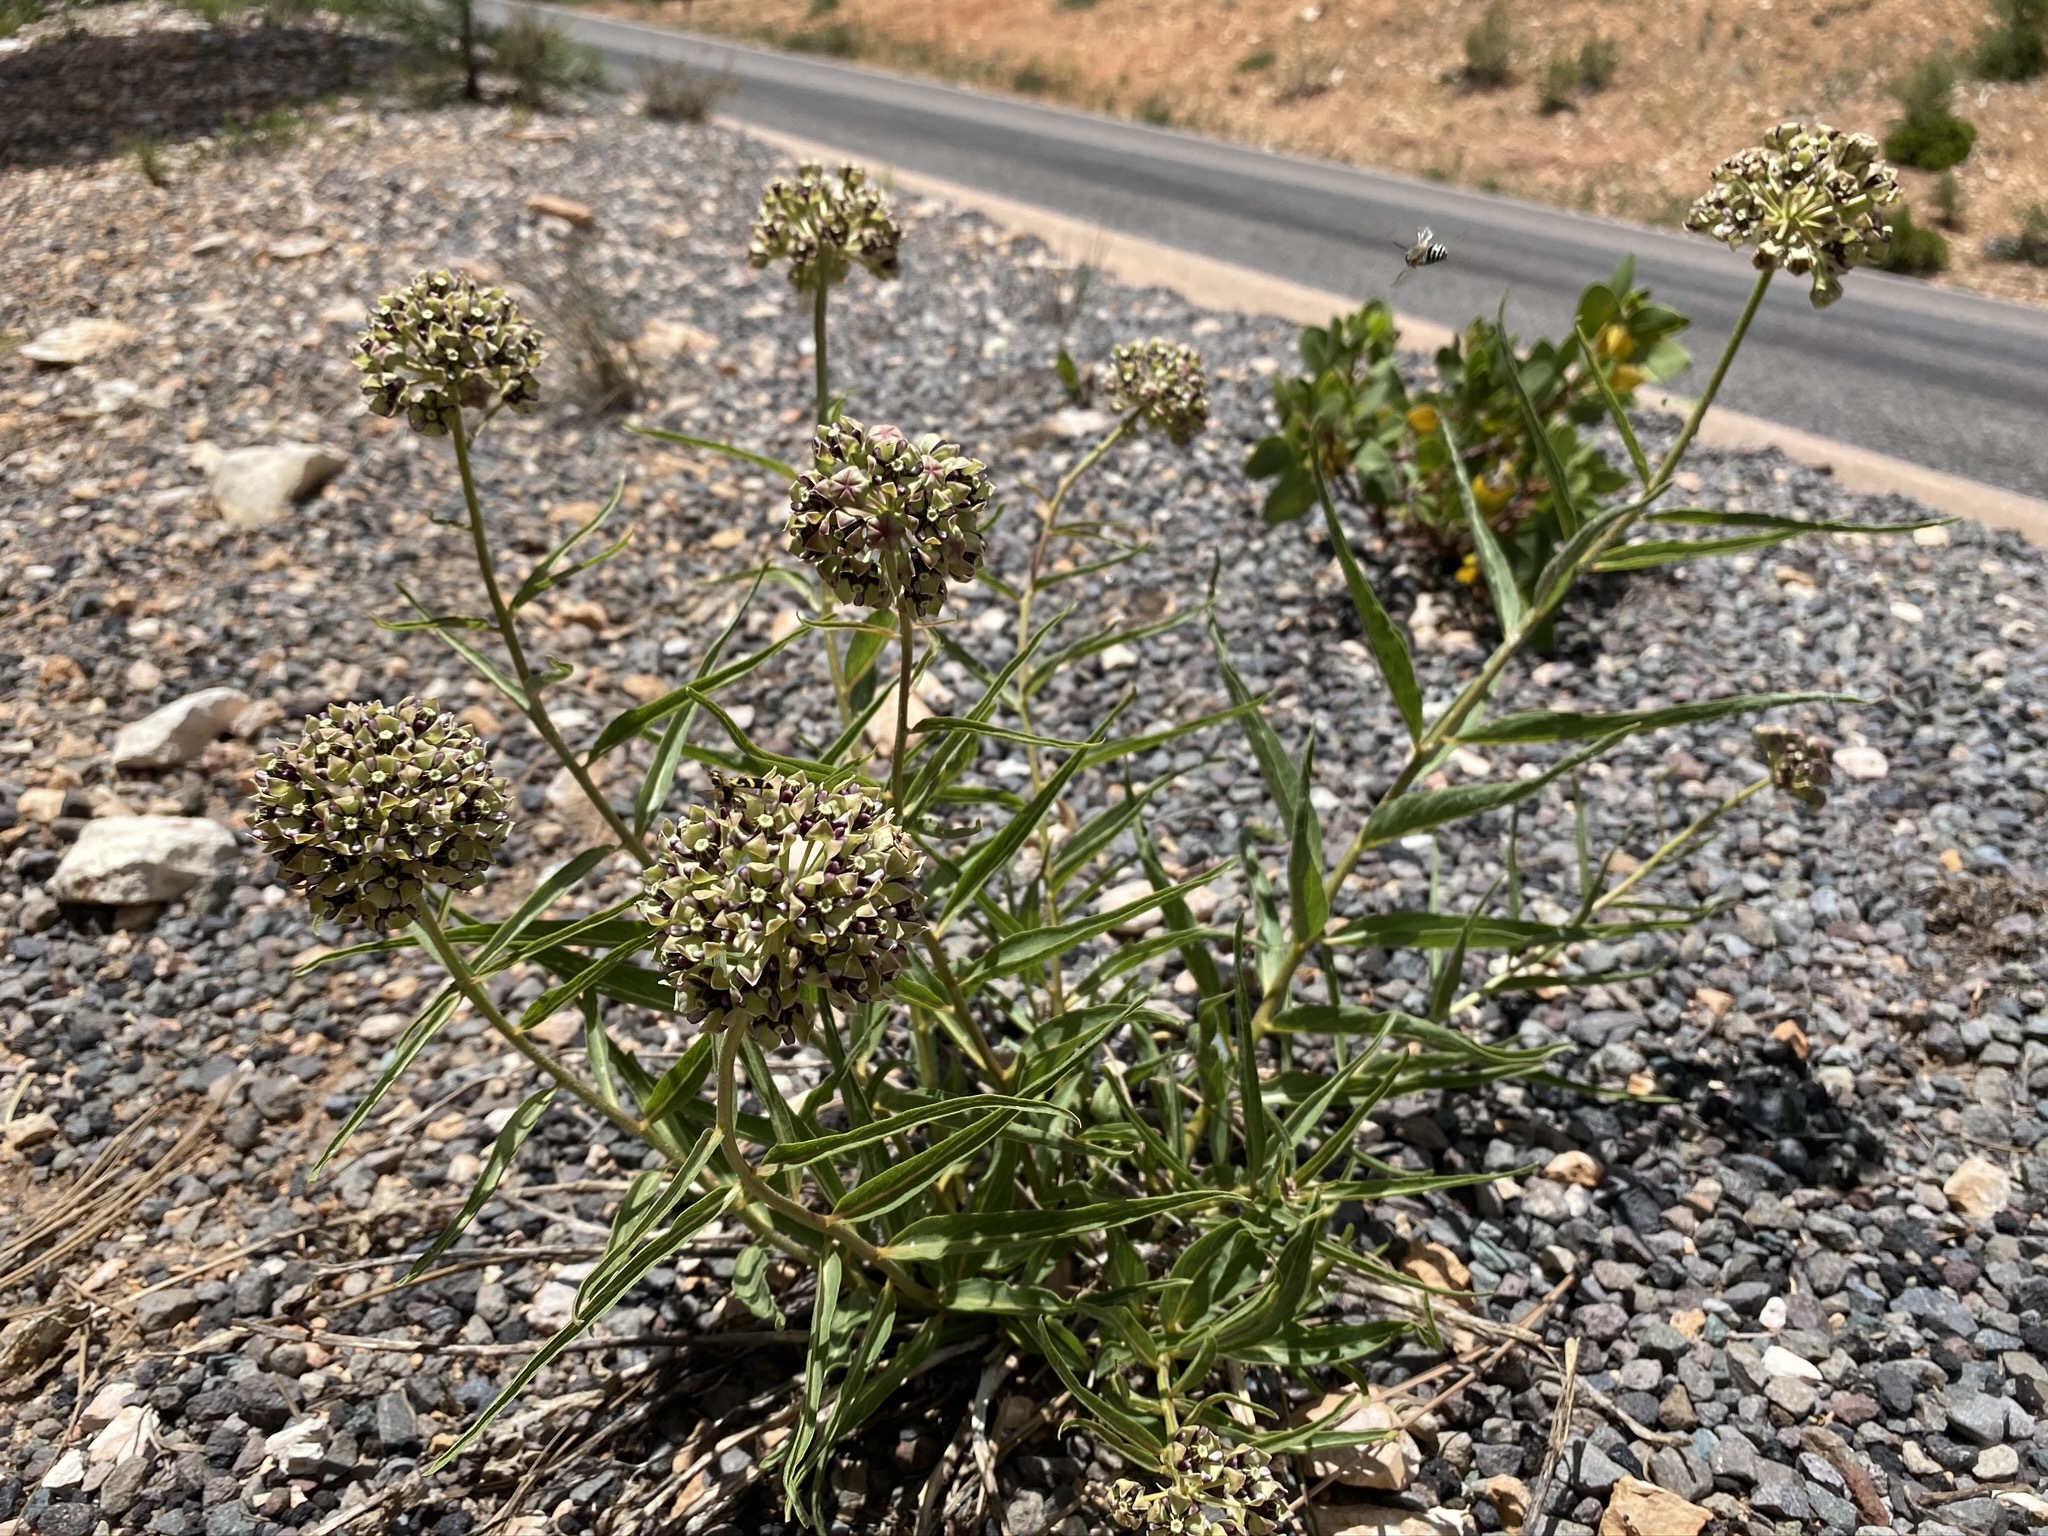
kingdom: Plantae
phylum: Tracheophyta
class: Magnoliopsida
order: Gentianales
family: Apocynaceae
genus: Asclepias
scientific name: Asclepias asperula
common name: Antelope horns
